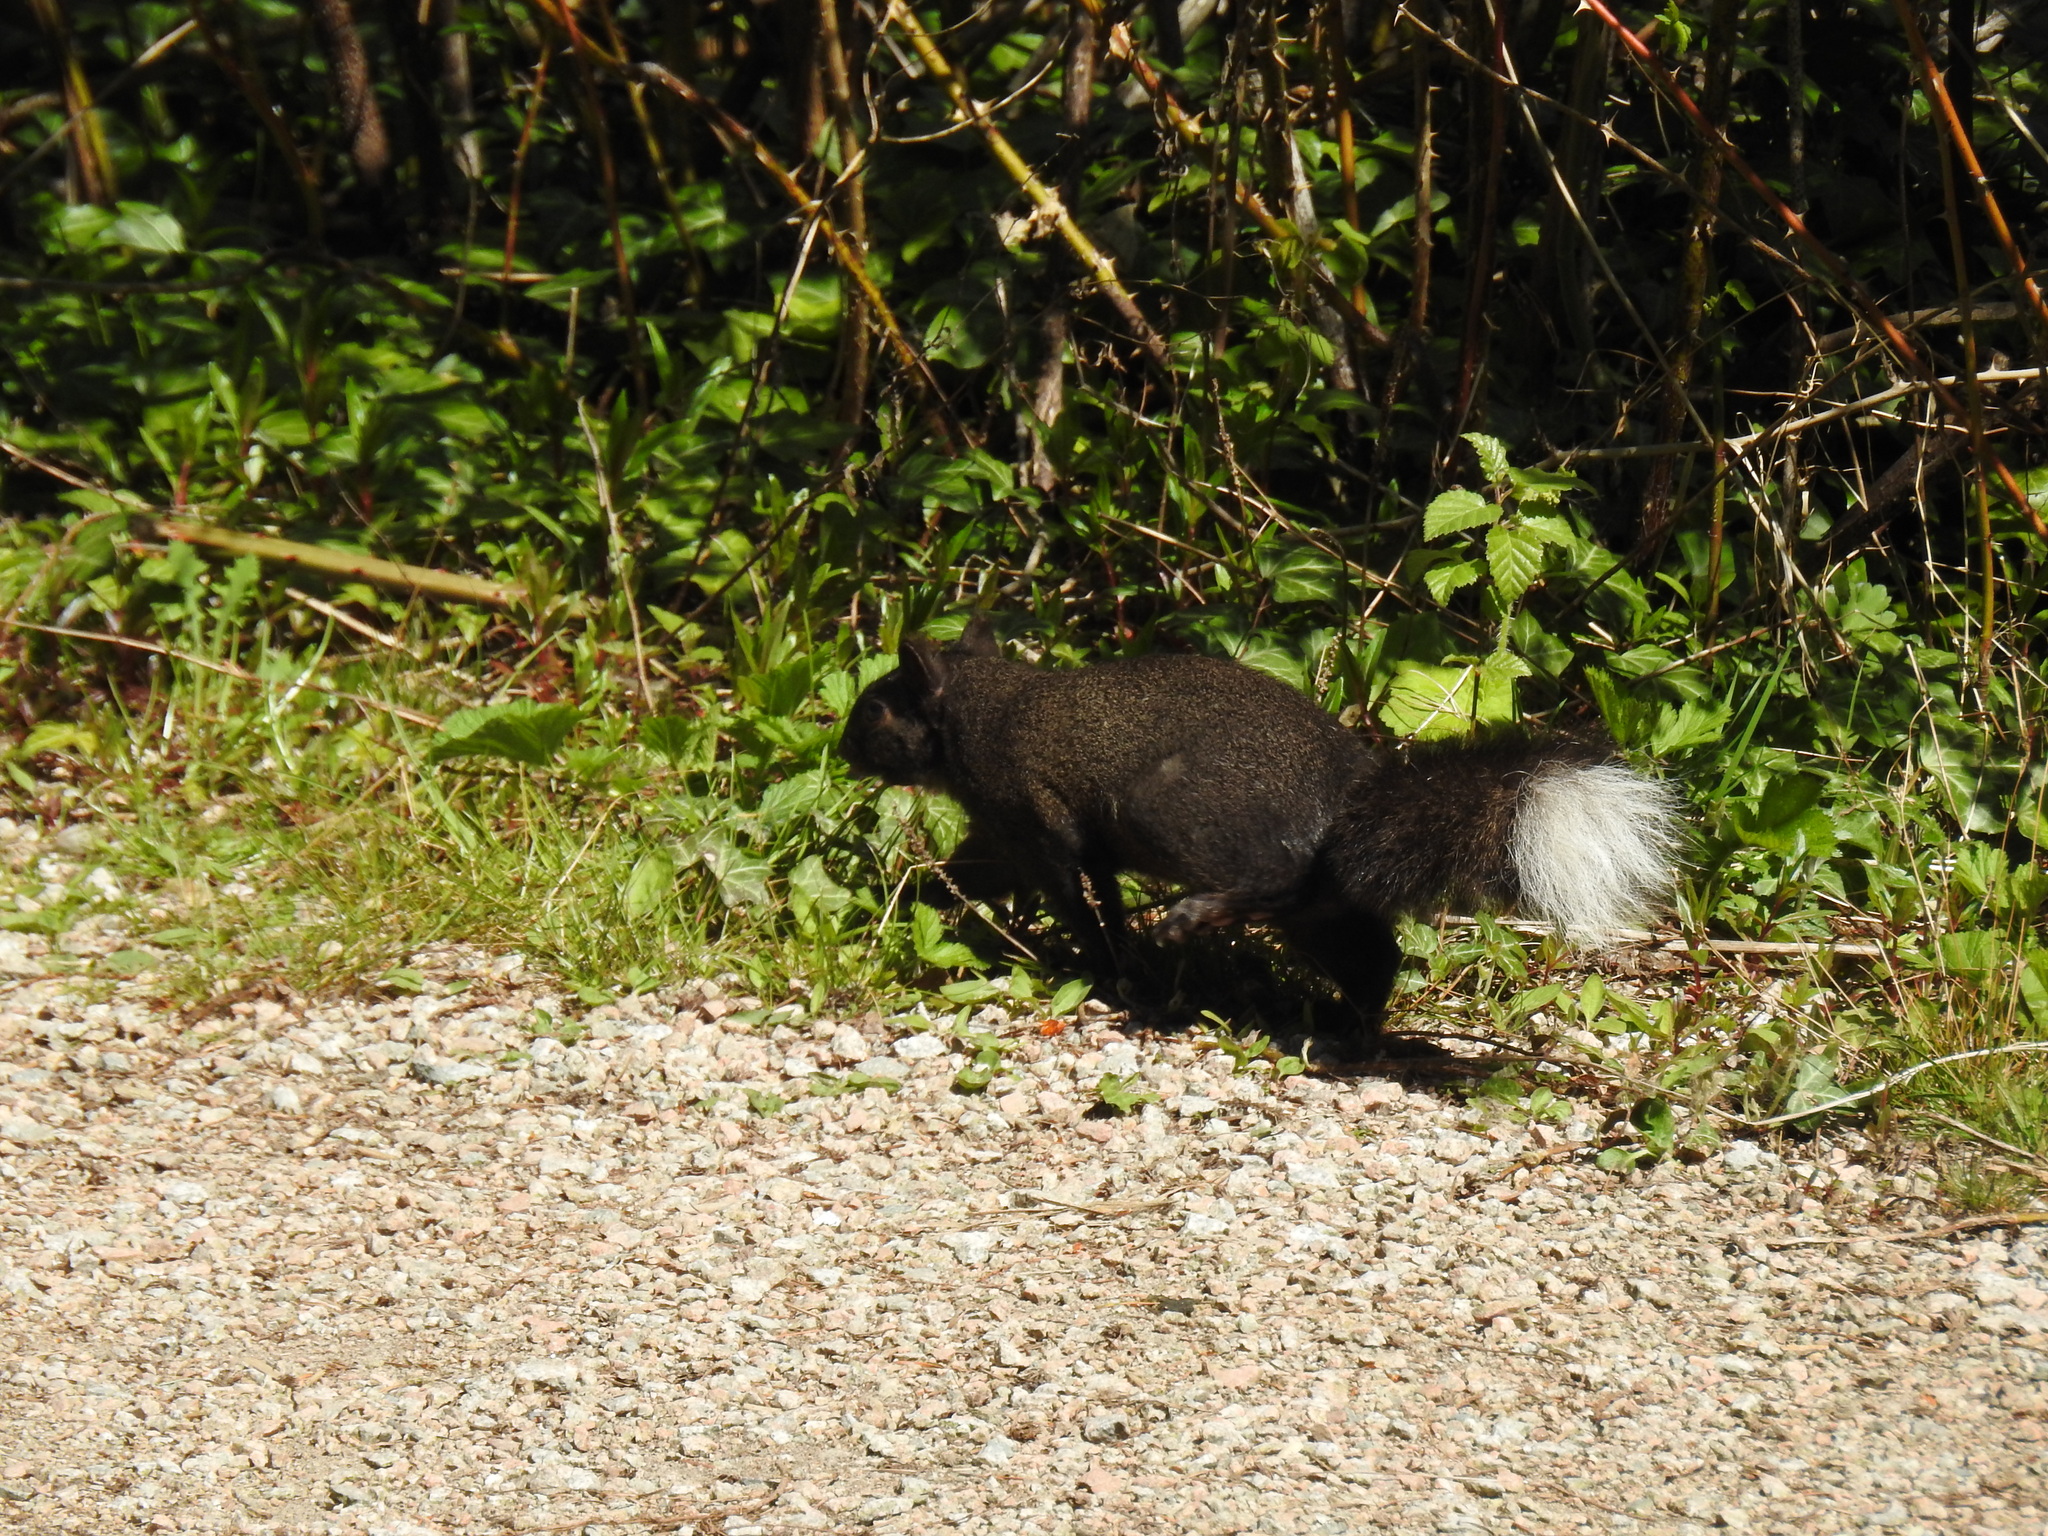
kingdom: Animalia
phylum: Chordata
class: Mammalia
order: Rodentia
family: Sciuridae
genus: Sciurus
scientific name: Sciurus carolinensis
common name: Eastern gray squirrel
